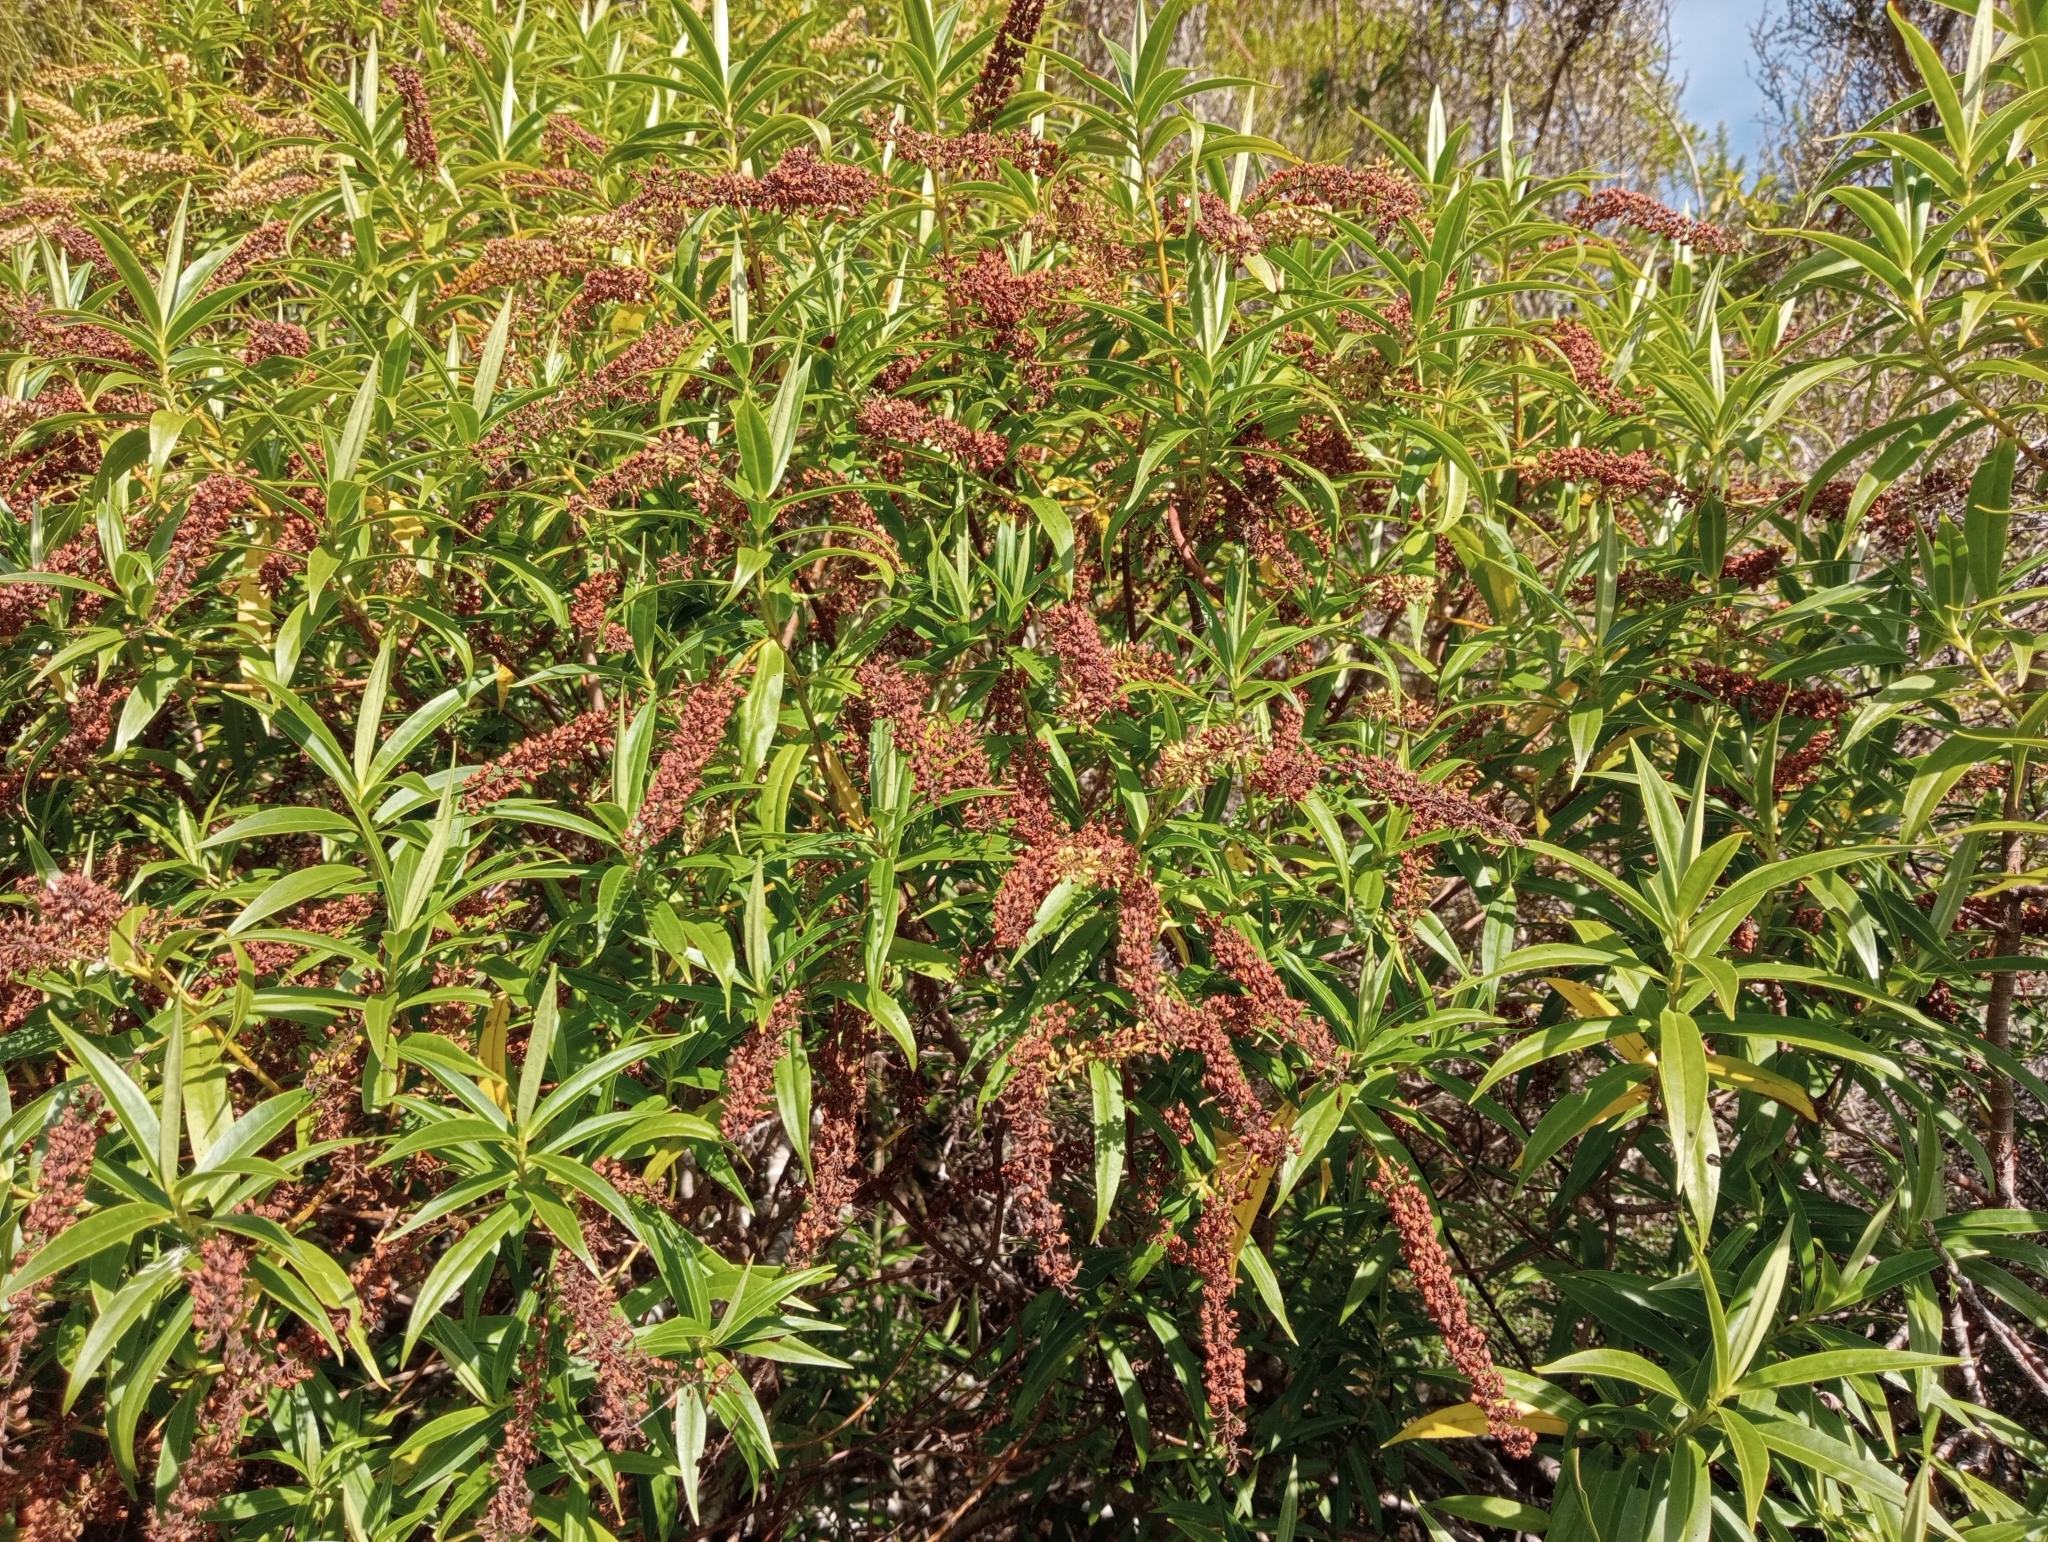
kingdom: Plantae
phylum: Tracheophyta
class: Magnoliopsida
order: Lamiales
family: Plantaginaceae
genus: Veronica
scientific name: Veronica salicifolia
